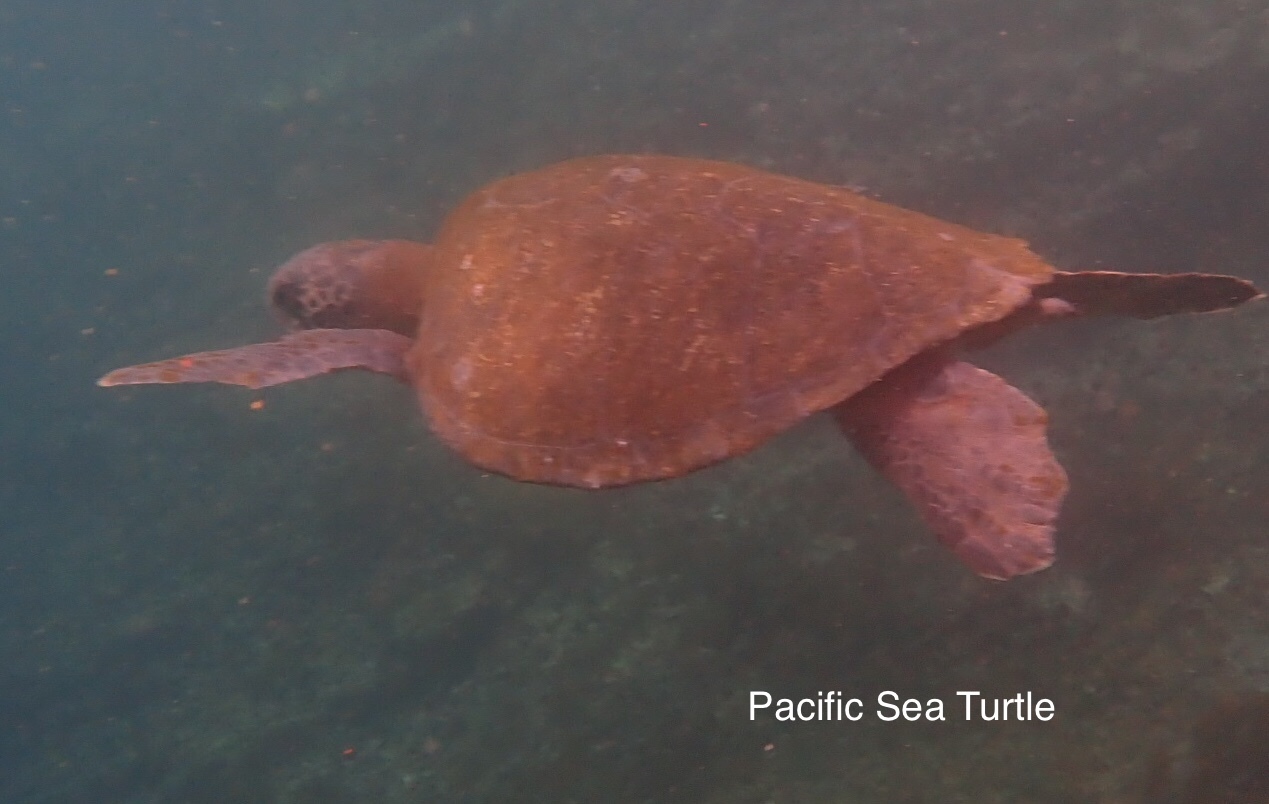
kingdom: Animalia
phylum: Chordata
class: Testudines
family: Cheloniidae
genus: Chelonia
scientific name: Chelonia mydas
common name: Green turtle
